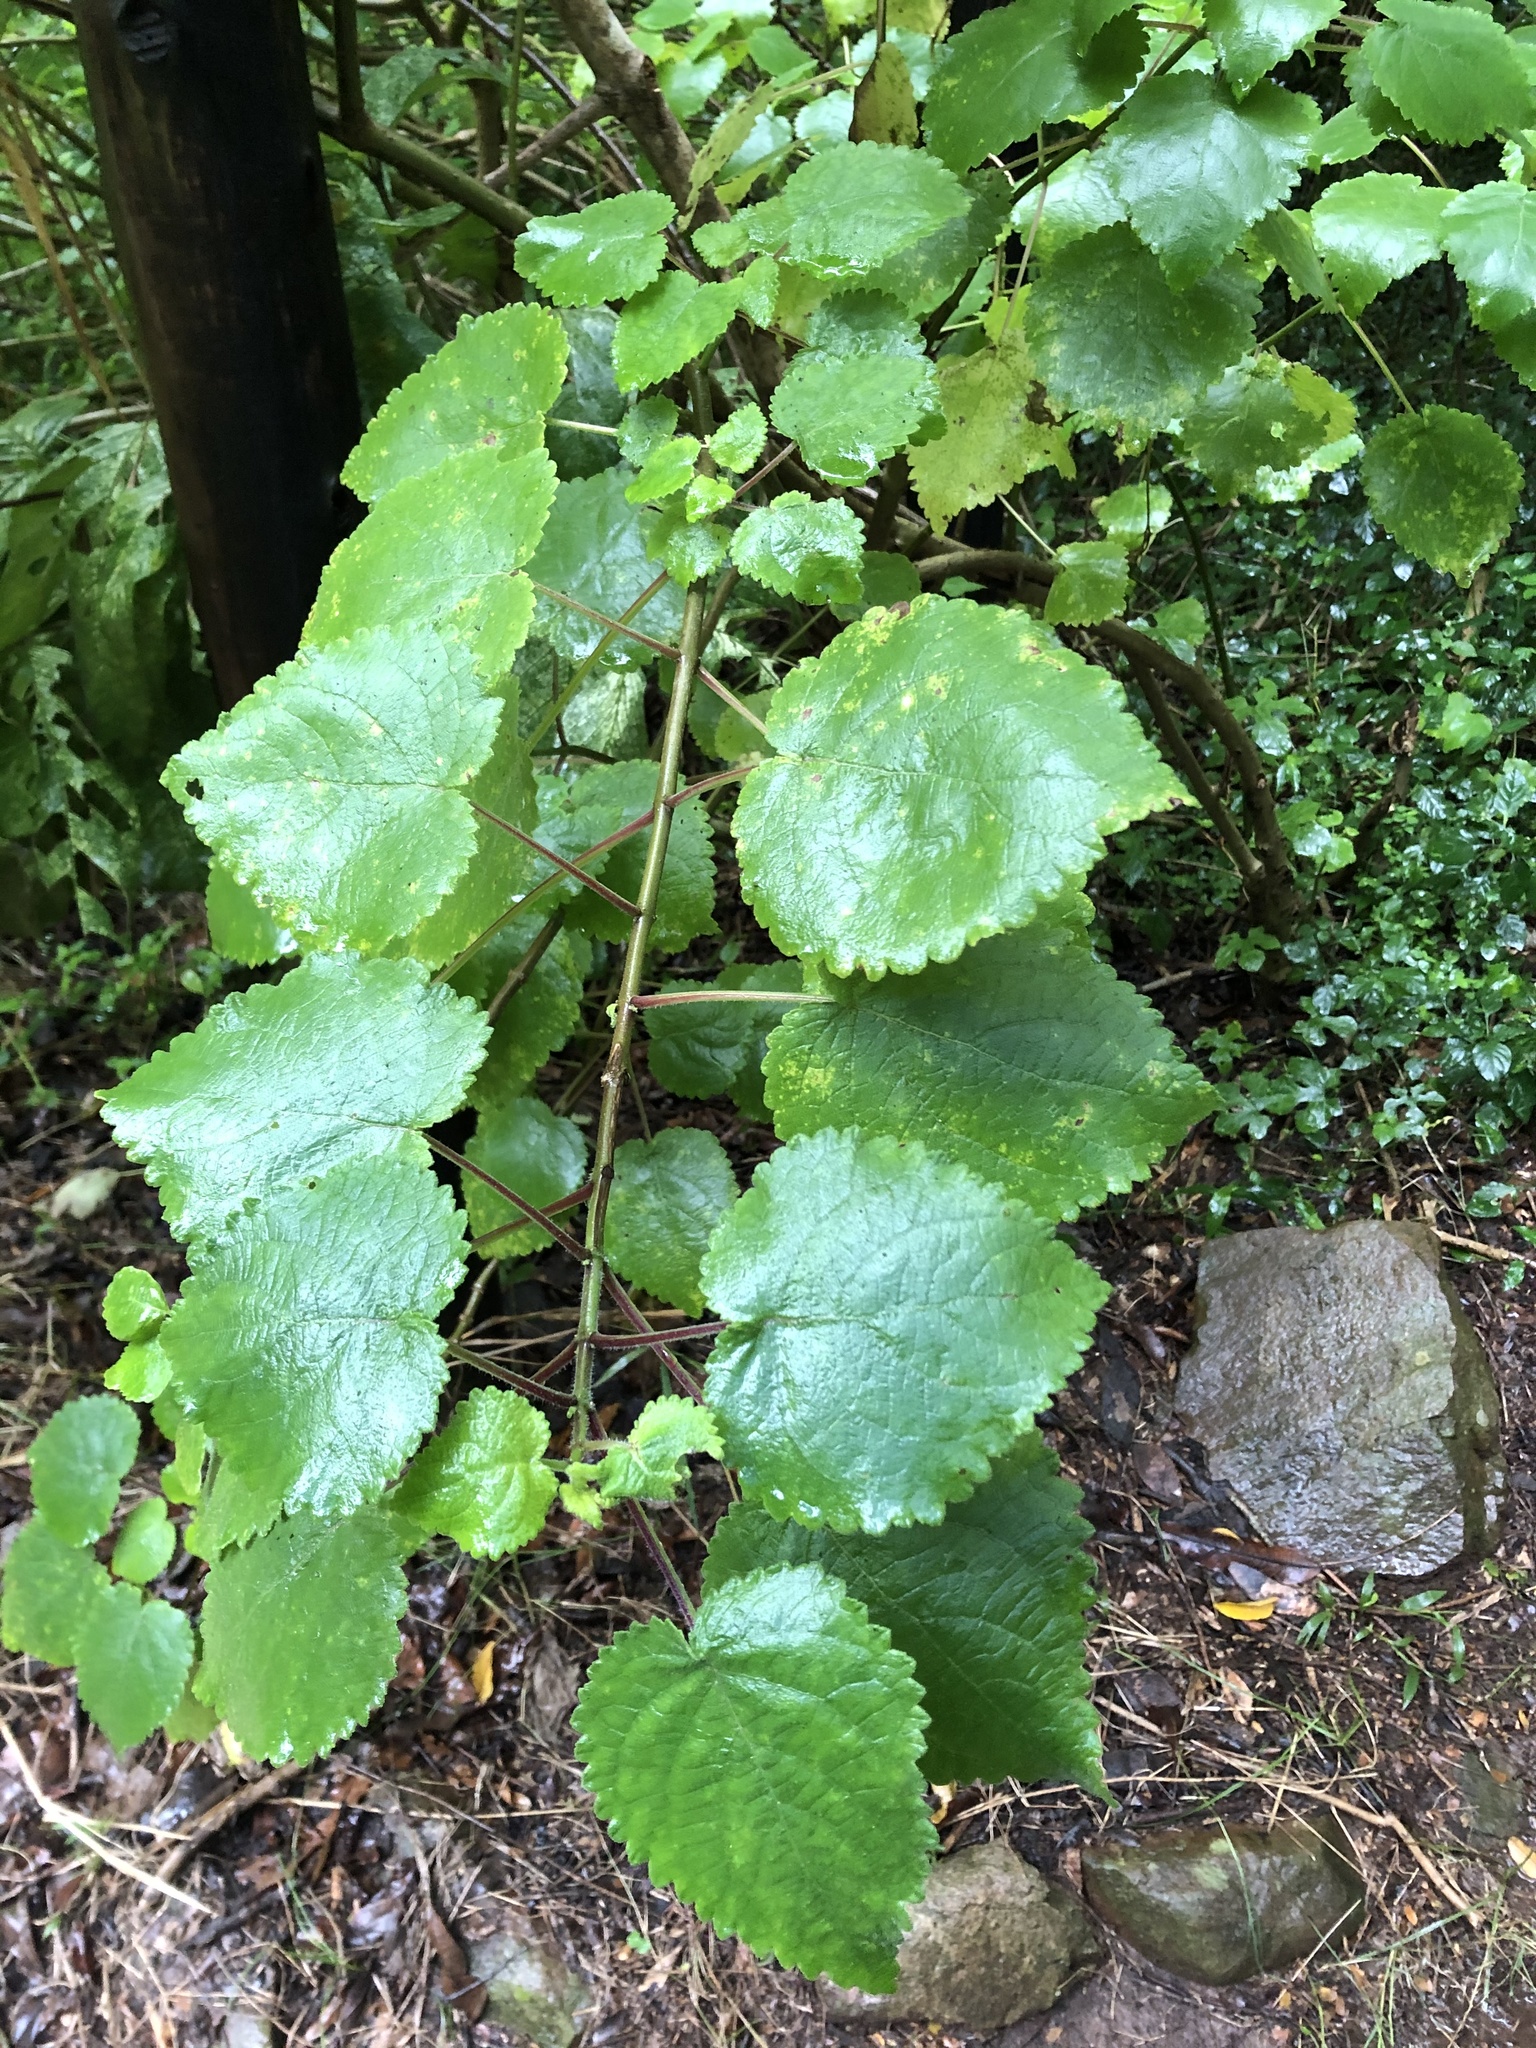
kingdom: Plantae
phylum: Tracheophyta
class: Magnoliopsida
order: Lamiales
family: Lamiaceae
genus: Tetradenia
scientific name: Tetradenia riparia
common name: Gingerbush
